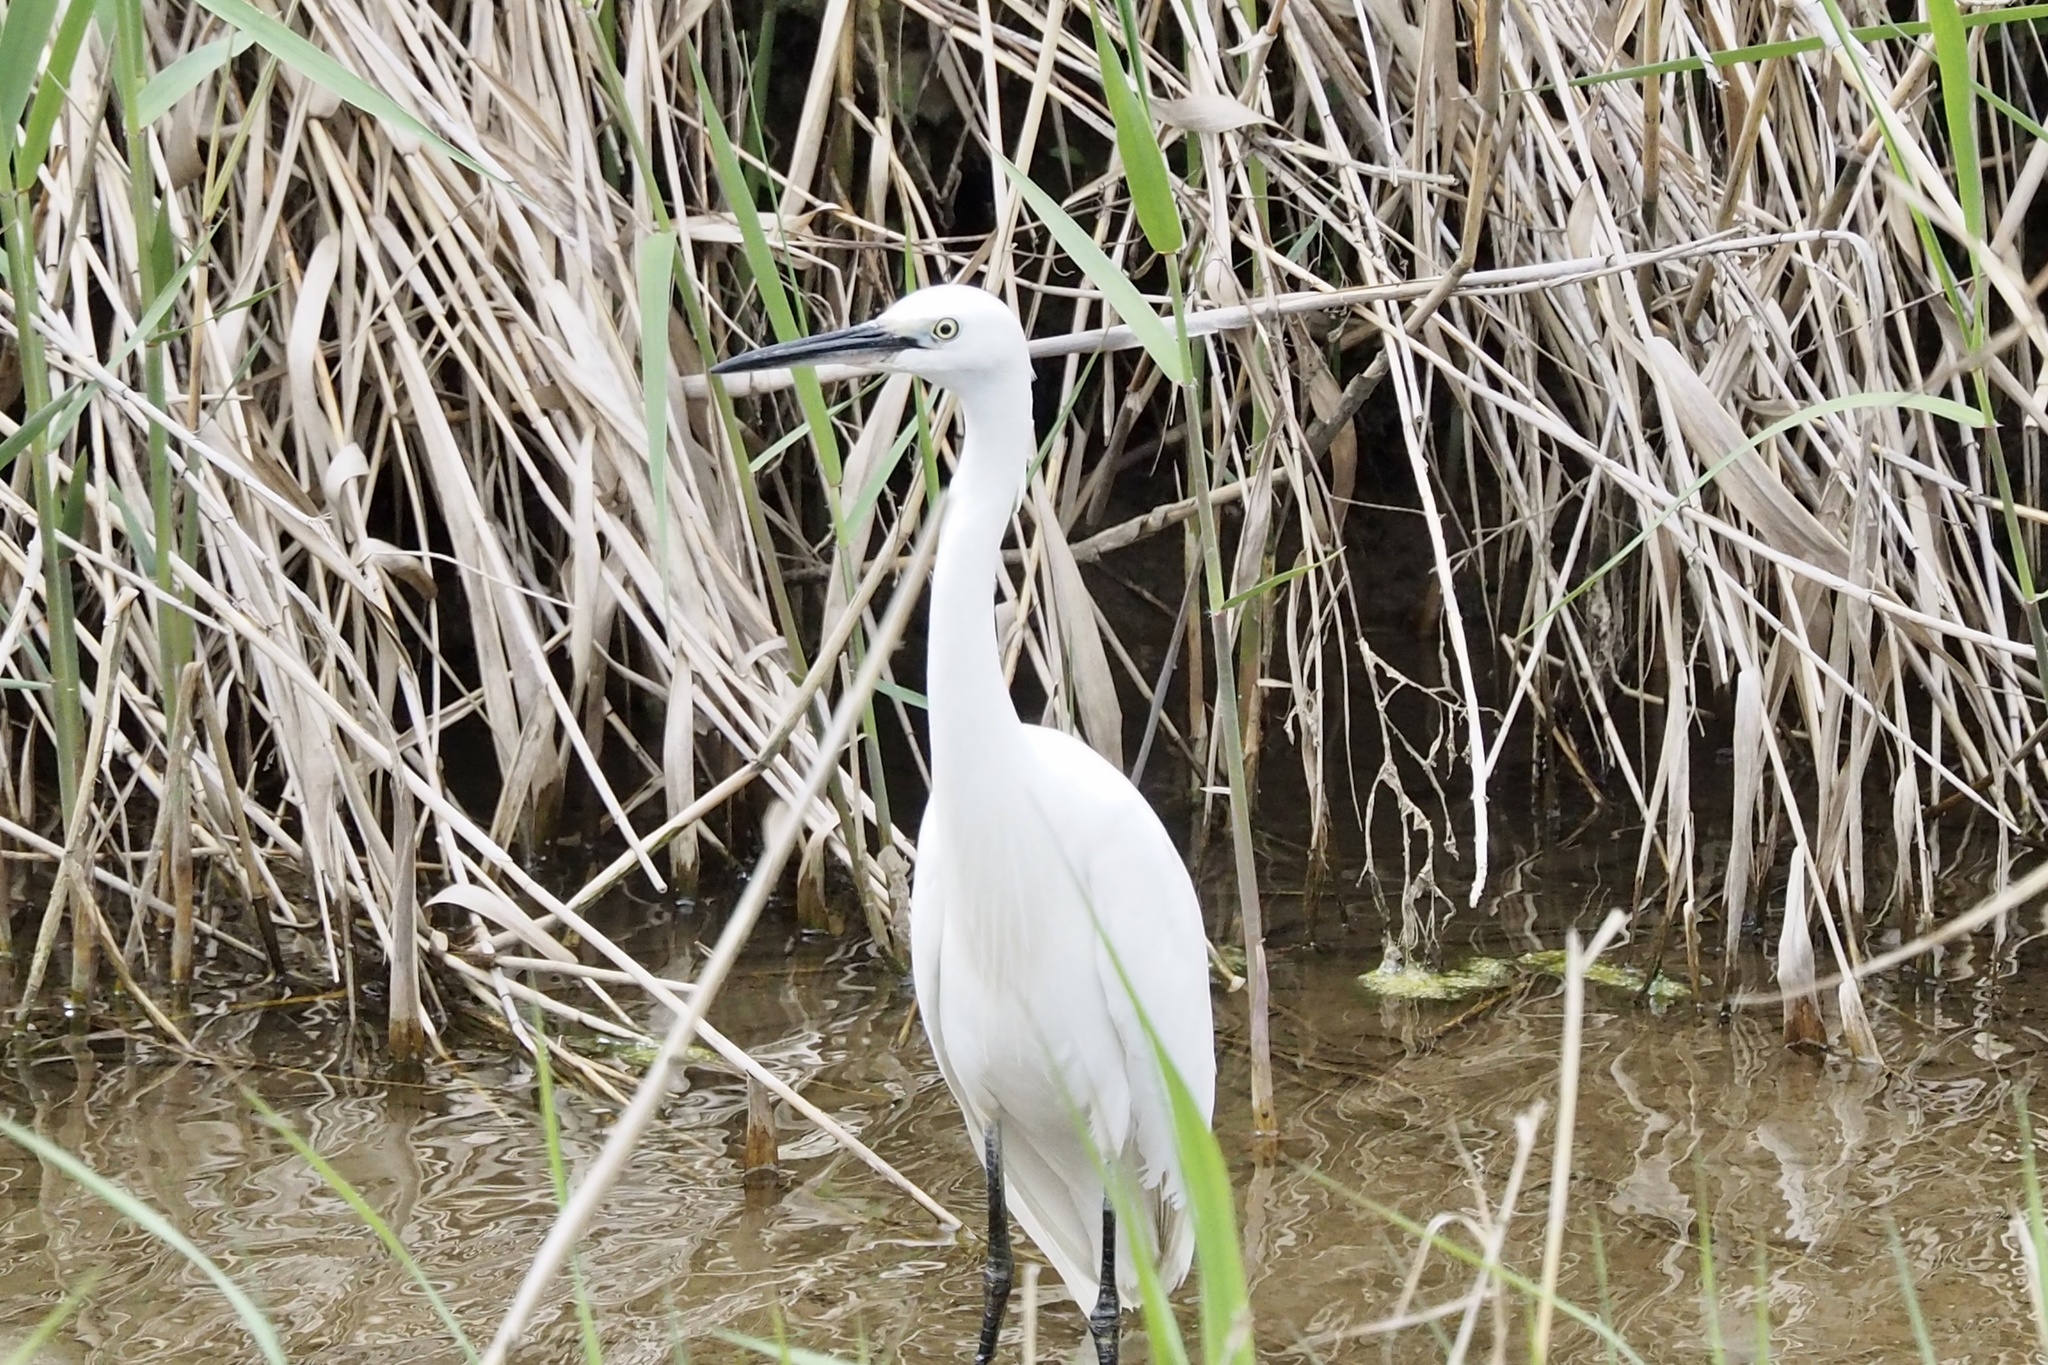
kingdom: Animalia
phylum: Chordata
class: Aves
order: Pelecaniformes
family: Ardeidae
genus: Egretta
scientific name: Egretta garzetta
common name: Little egret
